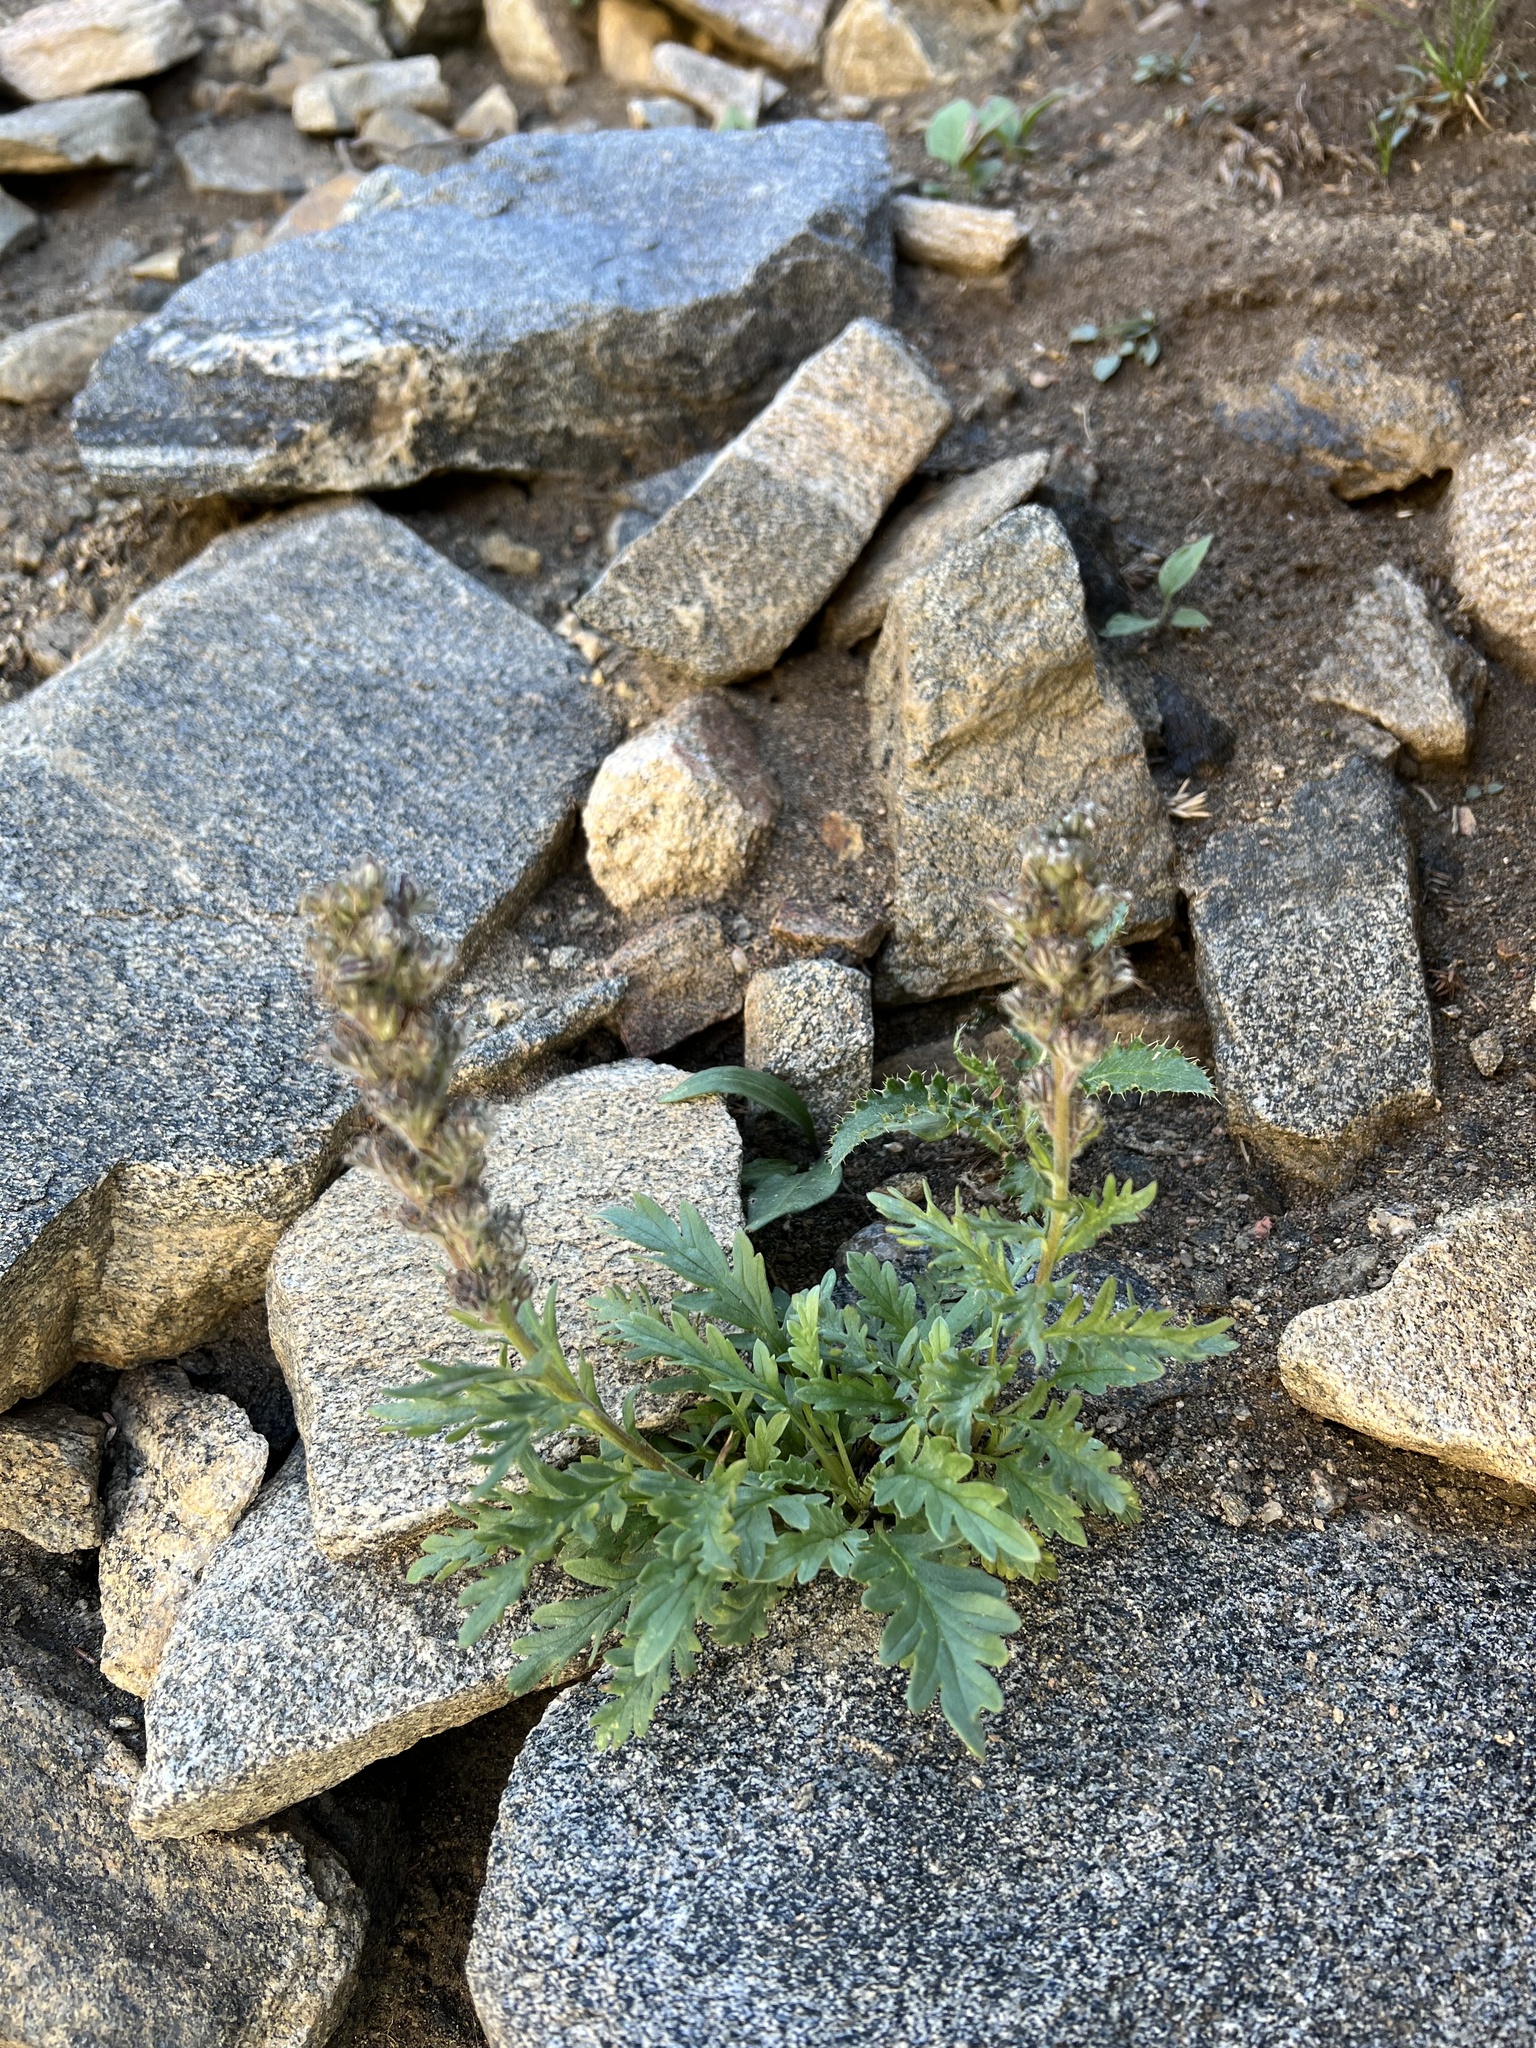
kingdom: Plantae
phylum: Tracheophyta
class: Magnoliopsida
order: Boraginales
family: Hydrophyllaceae
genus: Phacelia
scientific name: Phacelia sericea
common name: Silky phacelia
